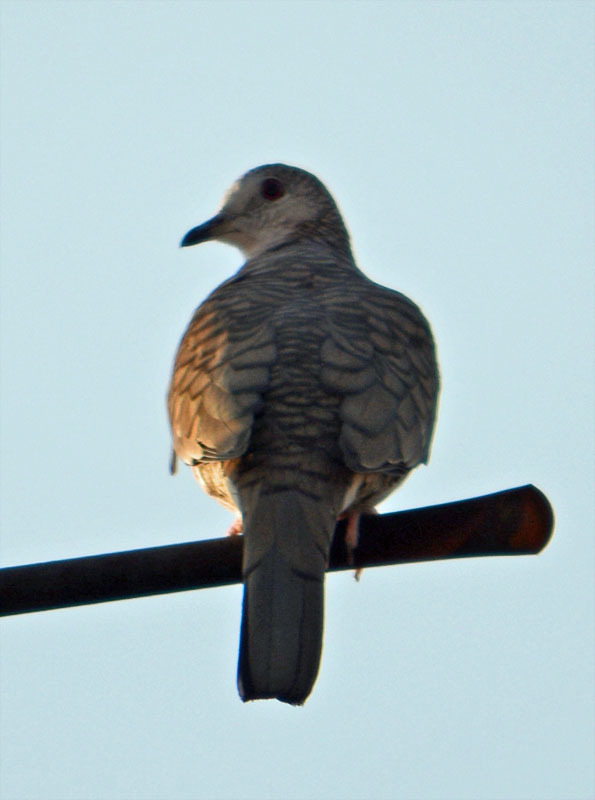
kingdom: Animalia
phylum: Chordata
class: Aves
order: Columbiformes
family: Columbidae
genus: Columbina
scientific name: Columbina inca
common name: Inca dove
